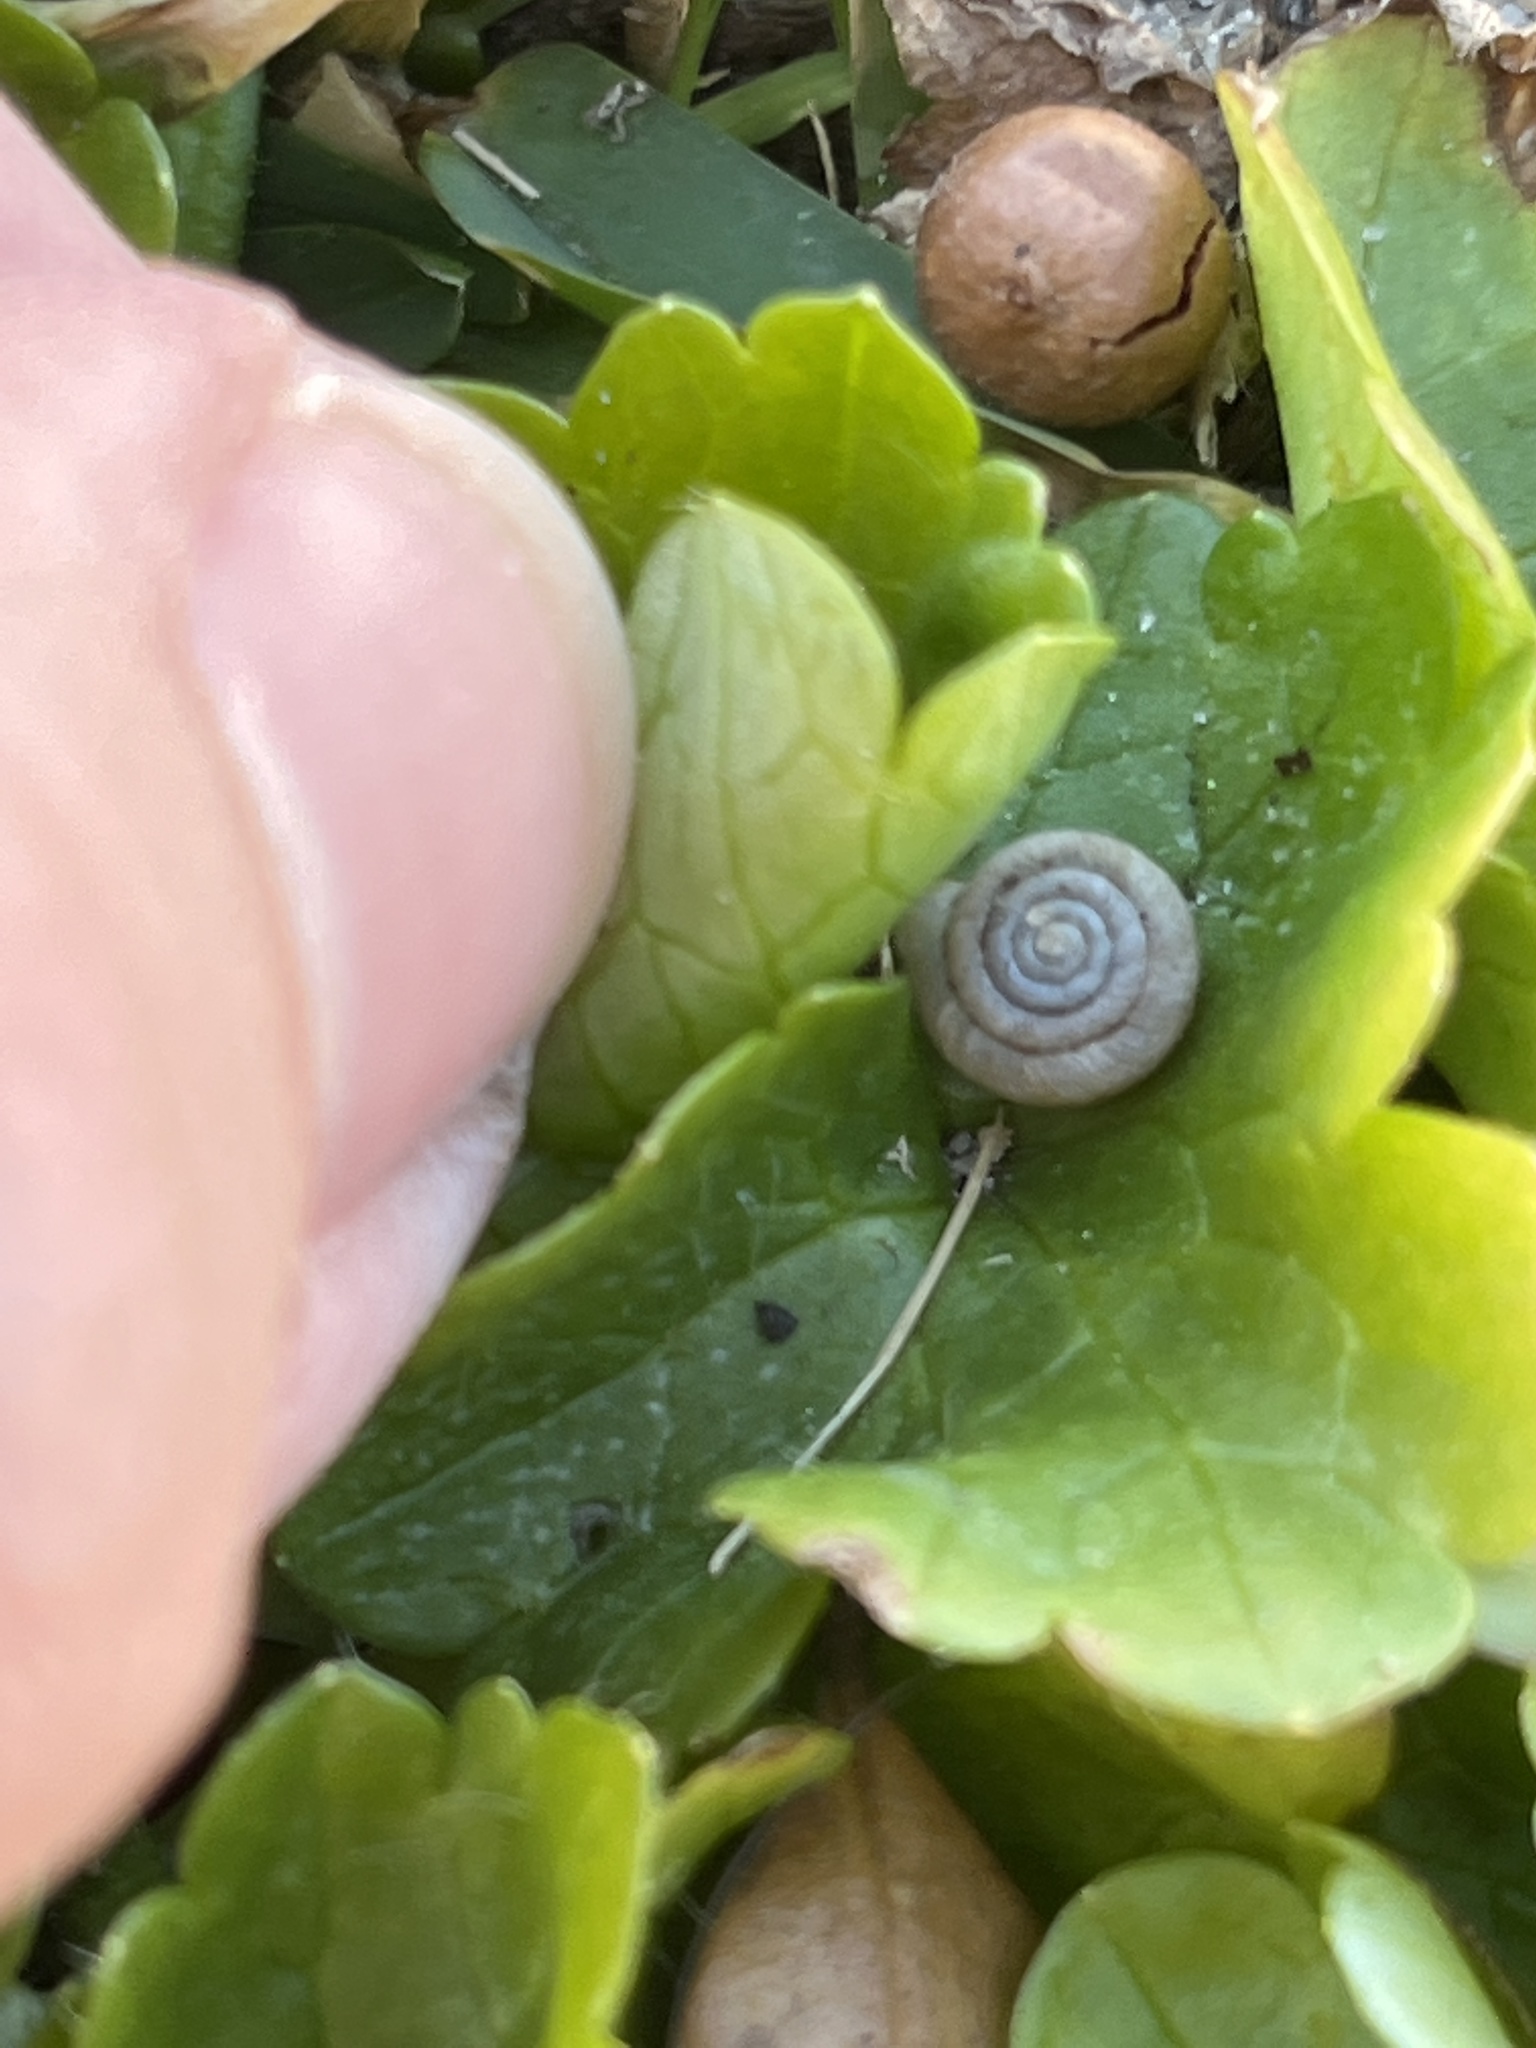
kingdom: Animalia
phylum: Mollusca
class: Gastropoda
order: Stylommatophora
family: Polygyridae
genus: Polygyra
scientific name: Polygyra cereolus
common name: Southern flatcone snail
